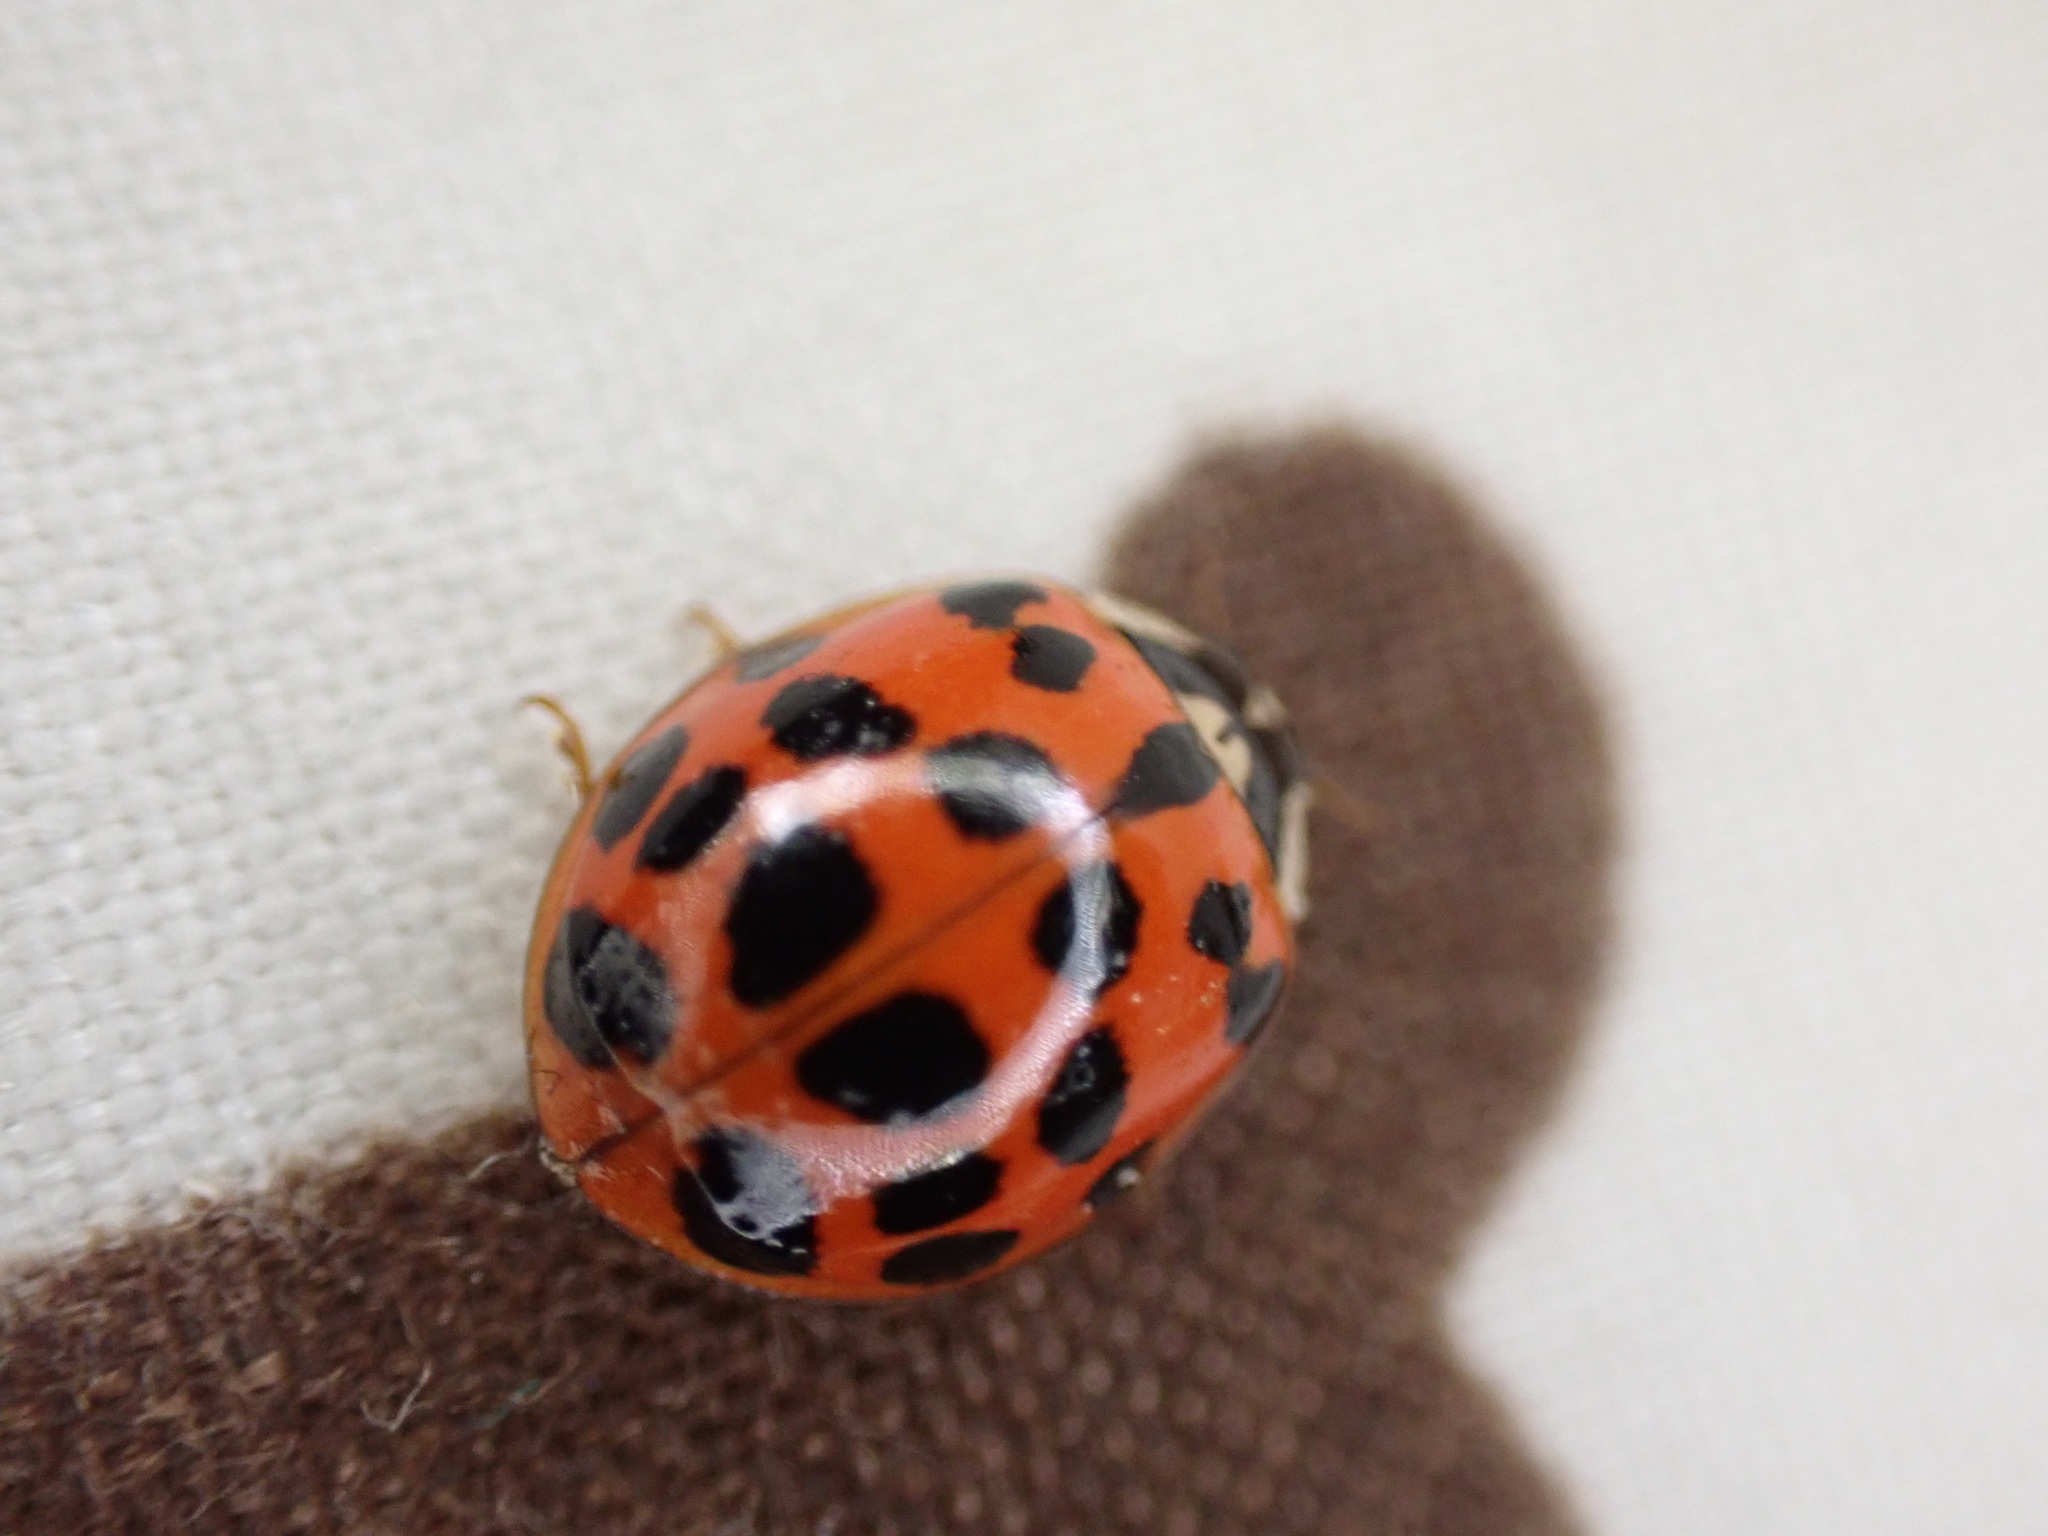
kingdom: Animalia
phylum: Arthropoda
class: Insecta
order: Coleoptera
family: Coccinellidae
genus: Harmonia
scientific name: Harmonia axyridis
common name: Harlequin ladybird
